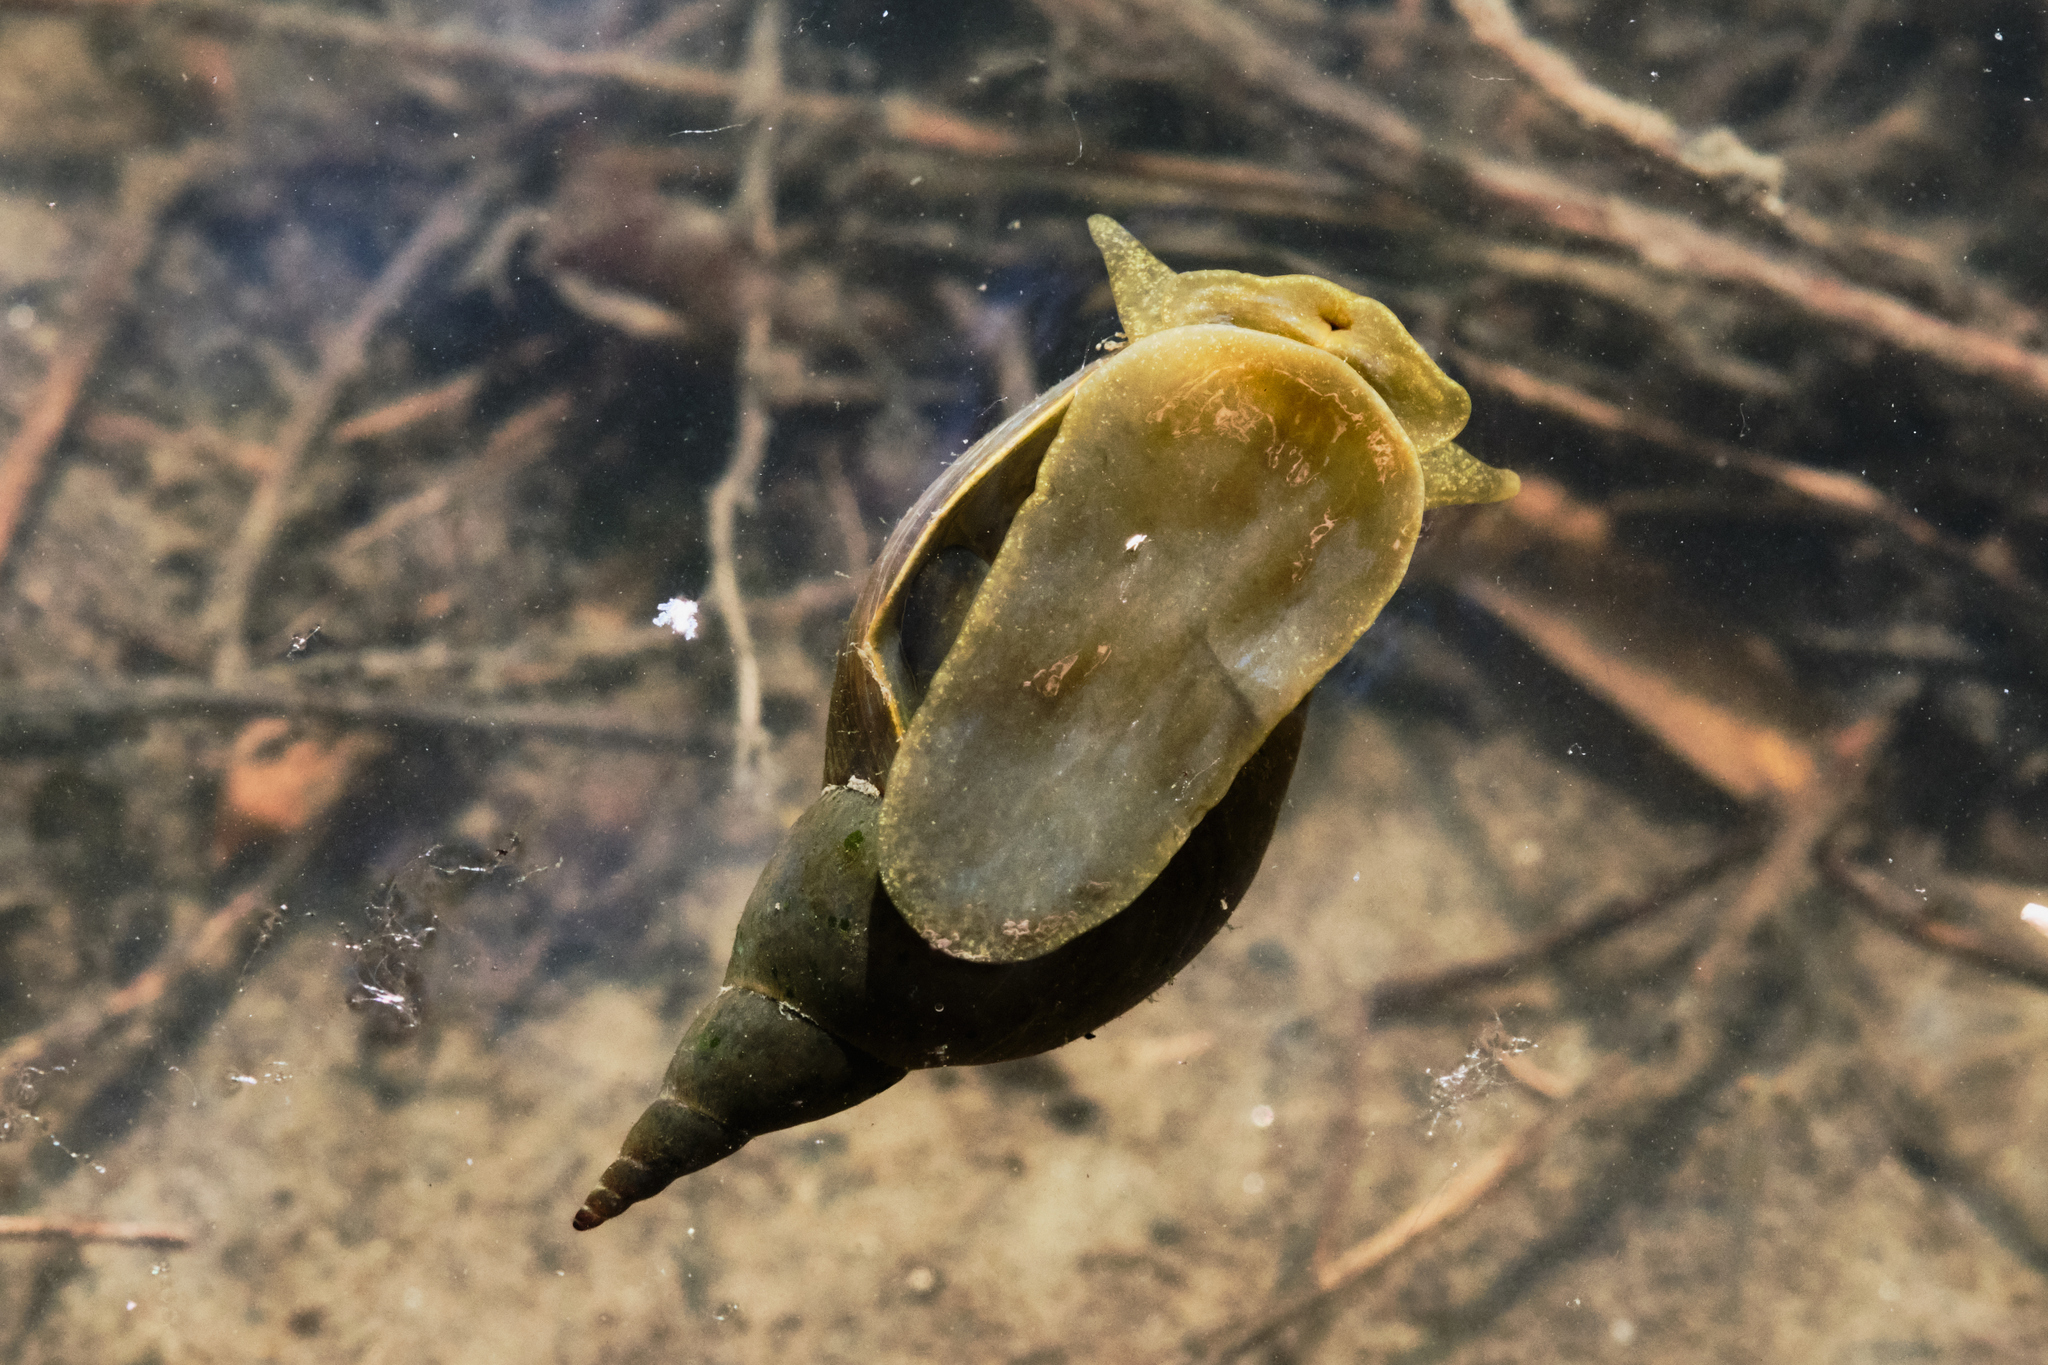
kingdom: Animalia
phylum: Mollusca
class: Gastropoda
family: Lymnaeidae
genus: Lymnaea
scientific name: Lymnaea stagnalis
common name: Great pond snail
